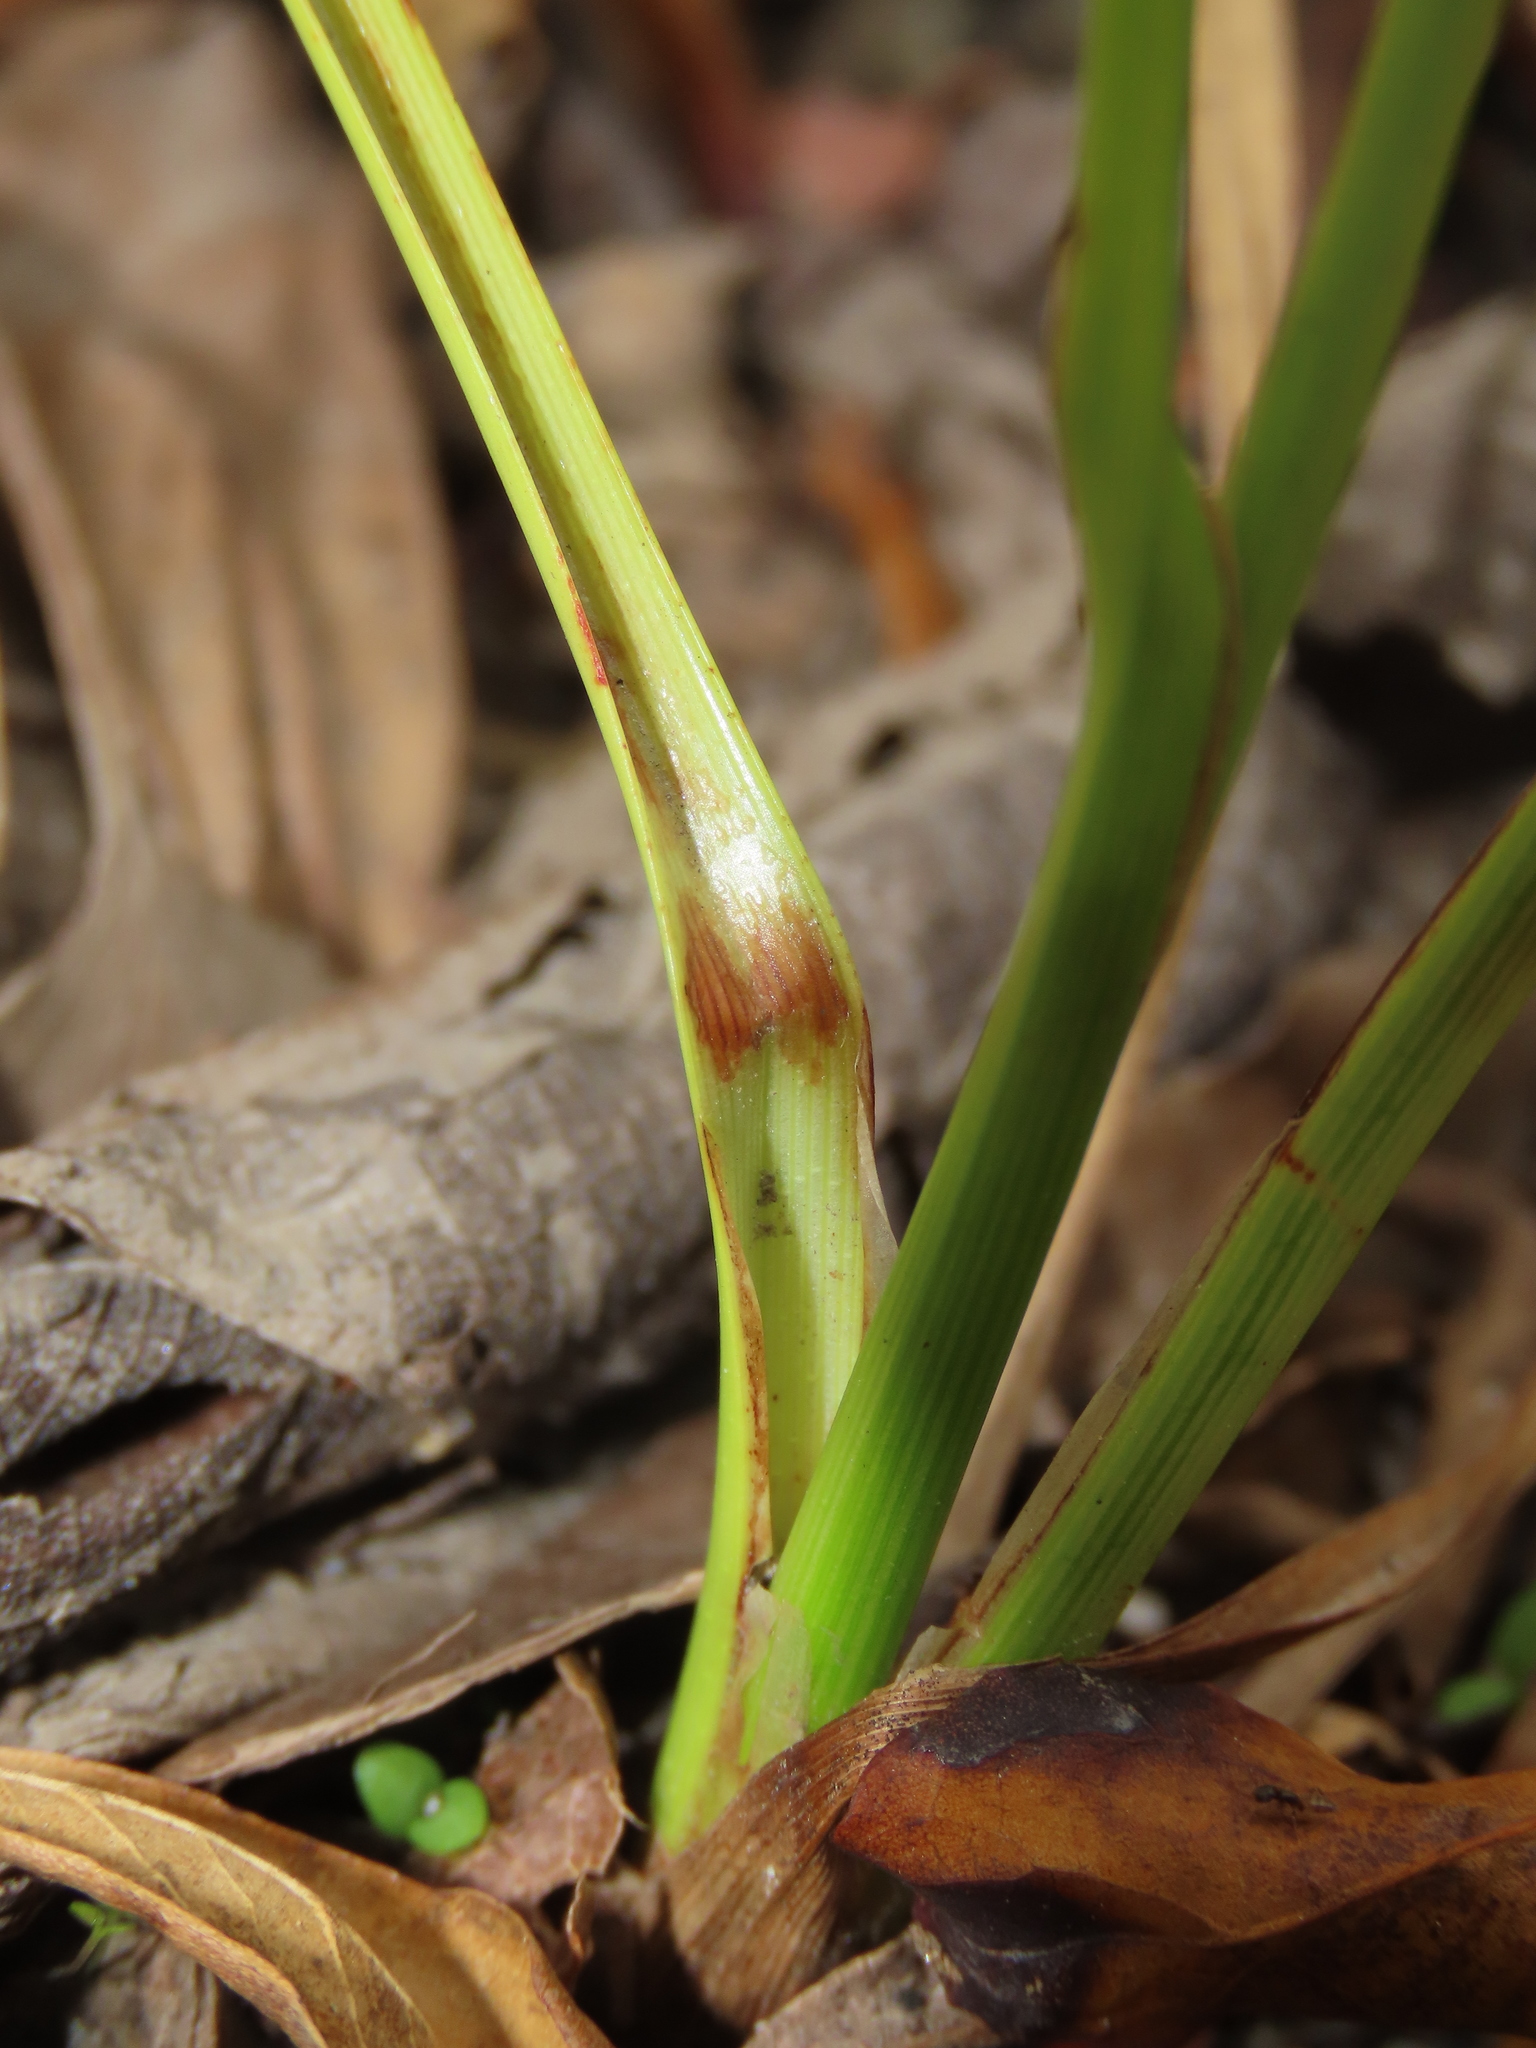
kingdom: Plantae
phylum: Tracheophyta
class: Liliopsida
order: Poales
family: Cyperaceae
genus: Cyperus
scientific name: Cyperus surinamensis
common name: Tropical flat sedge
